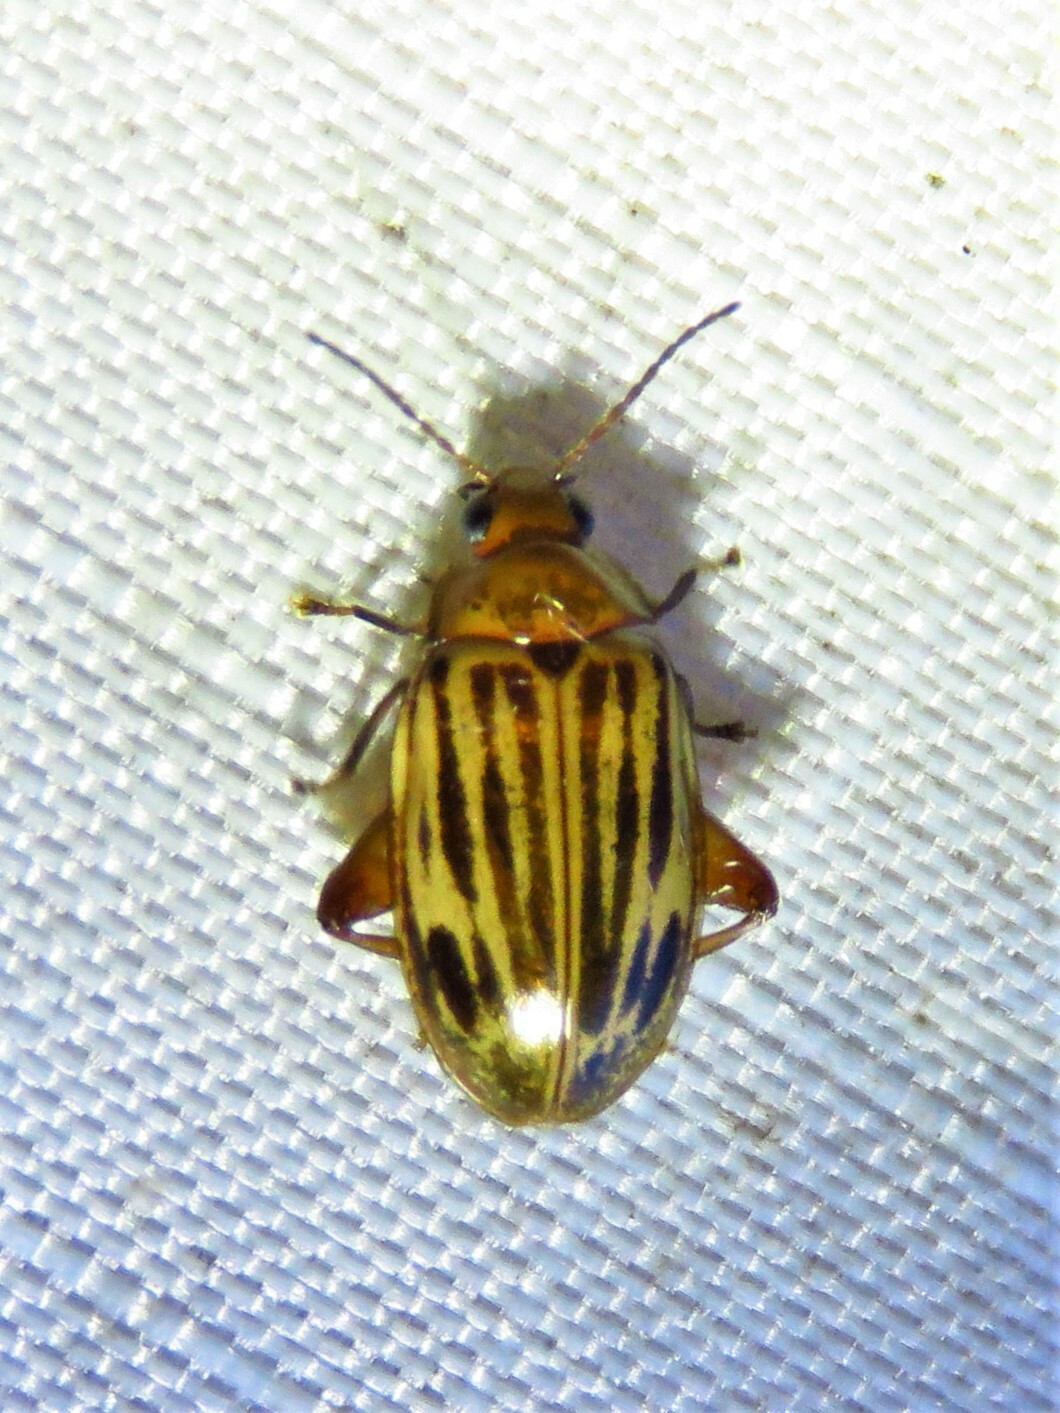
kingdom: Animalia
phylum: Arthropoda
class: Insecta
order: Coleoptera
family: Scirtidae
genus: Ora
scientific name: Ora troberti
